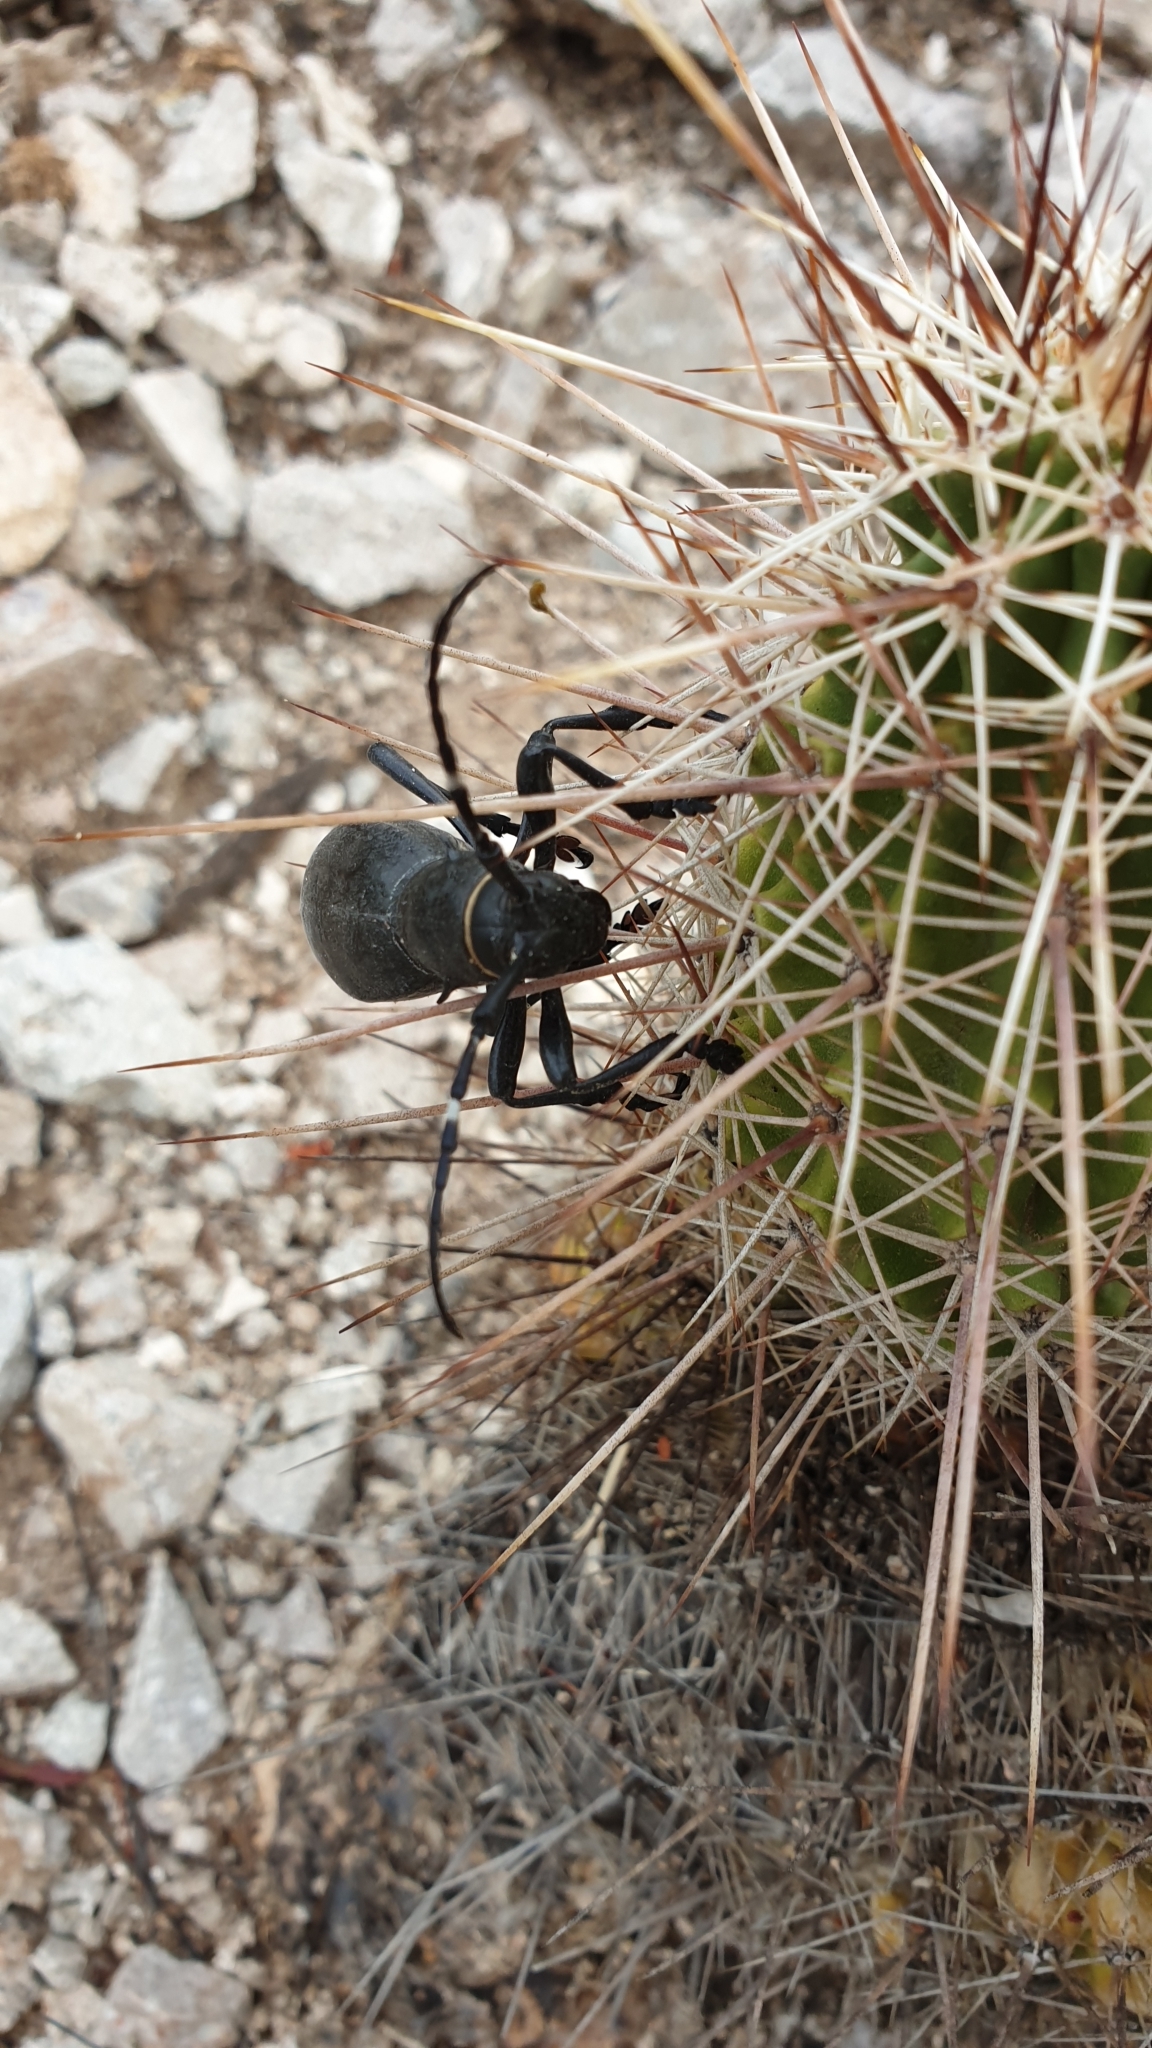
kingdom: Animalia
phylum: Arthropoda
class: Insecta
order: Coleoptera
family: Cerambycidae
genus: Moneilema
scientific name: Moneilema gigas
